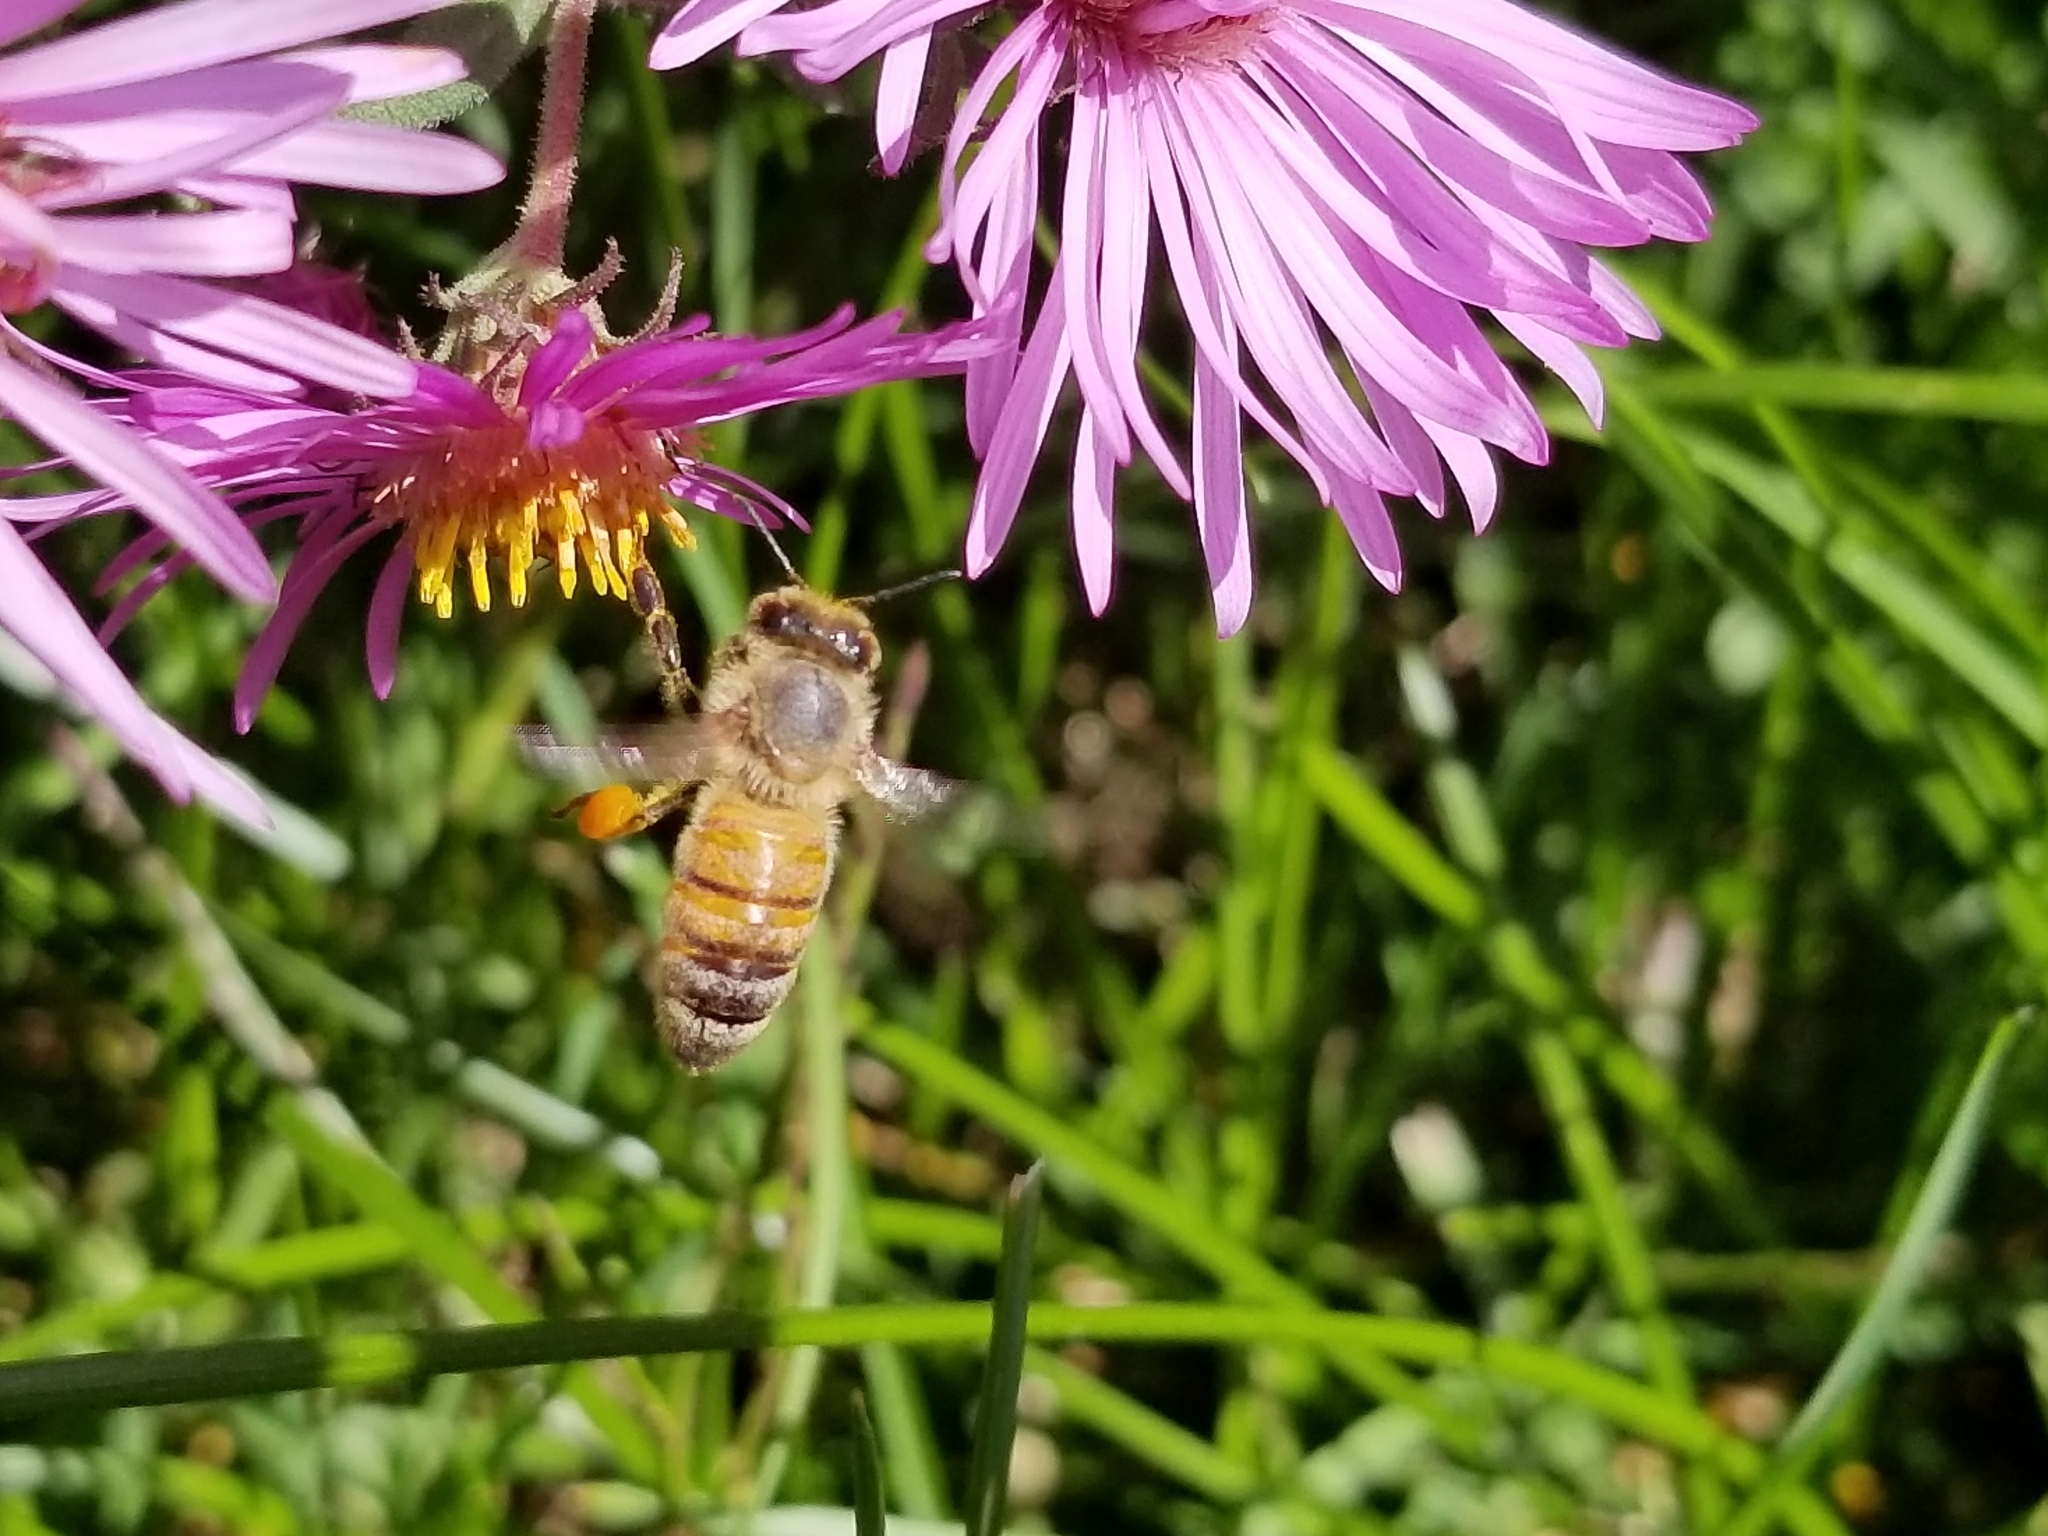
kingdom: Animalia
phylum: Arthropoda
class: Insecta
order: Hymenoptera
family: Apidae
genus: Apis
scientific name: Apis mellifera
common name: Honey bee
